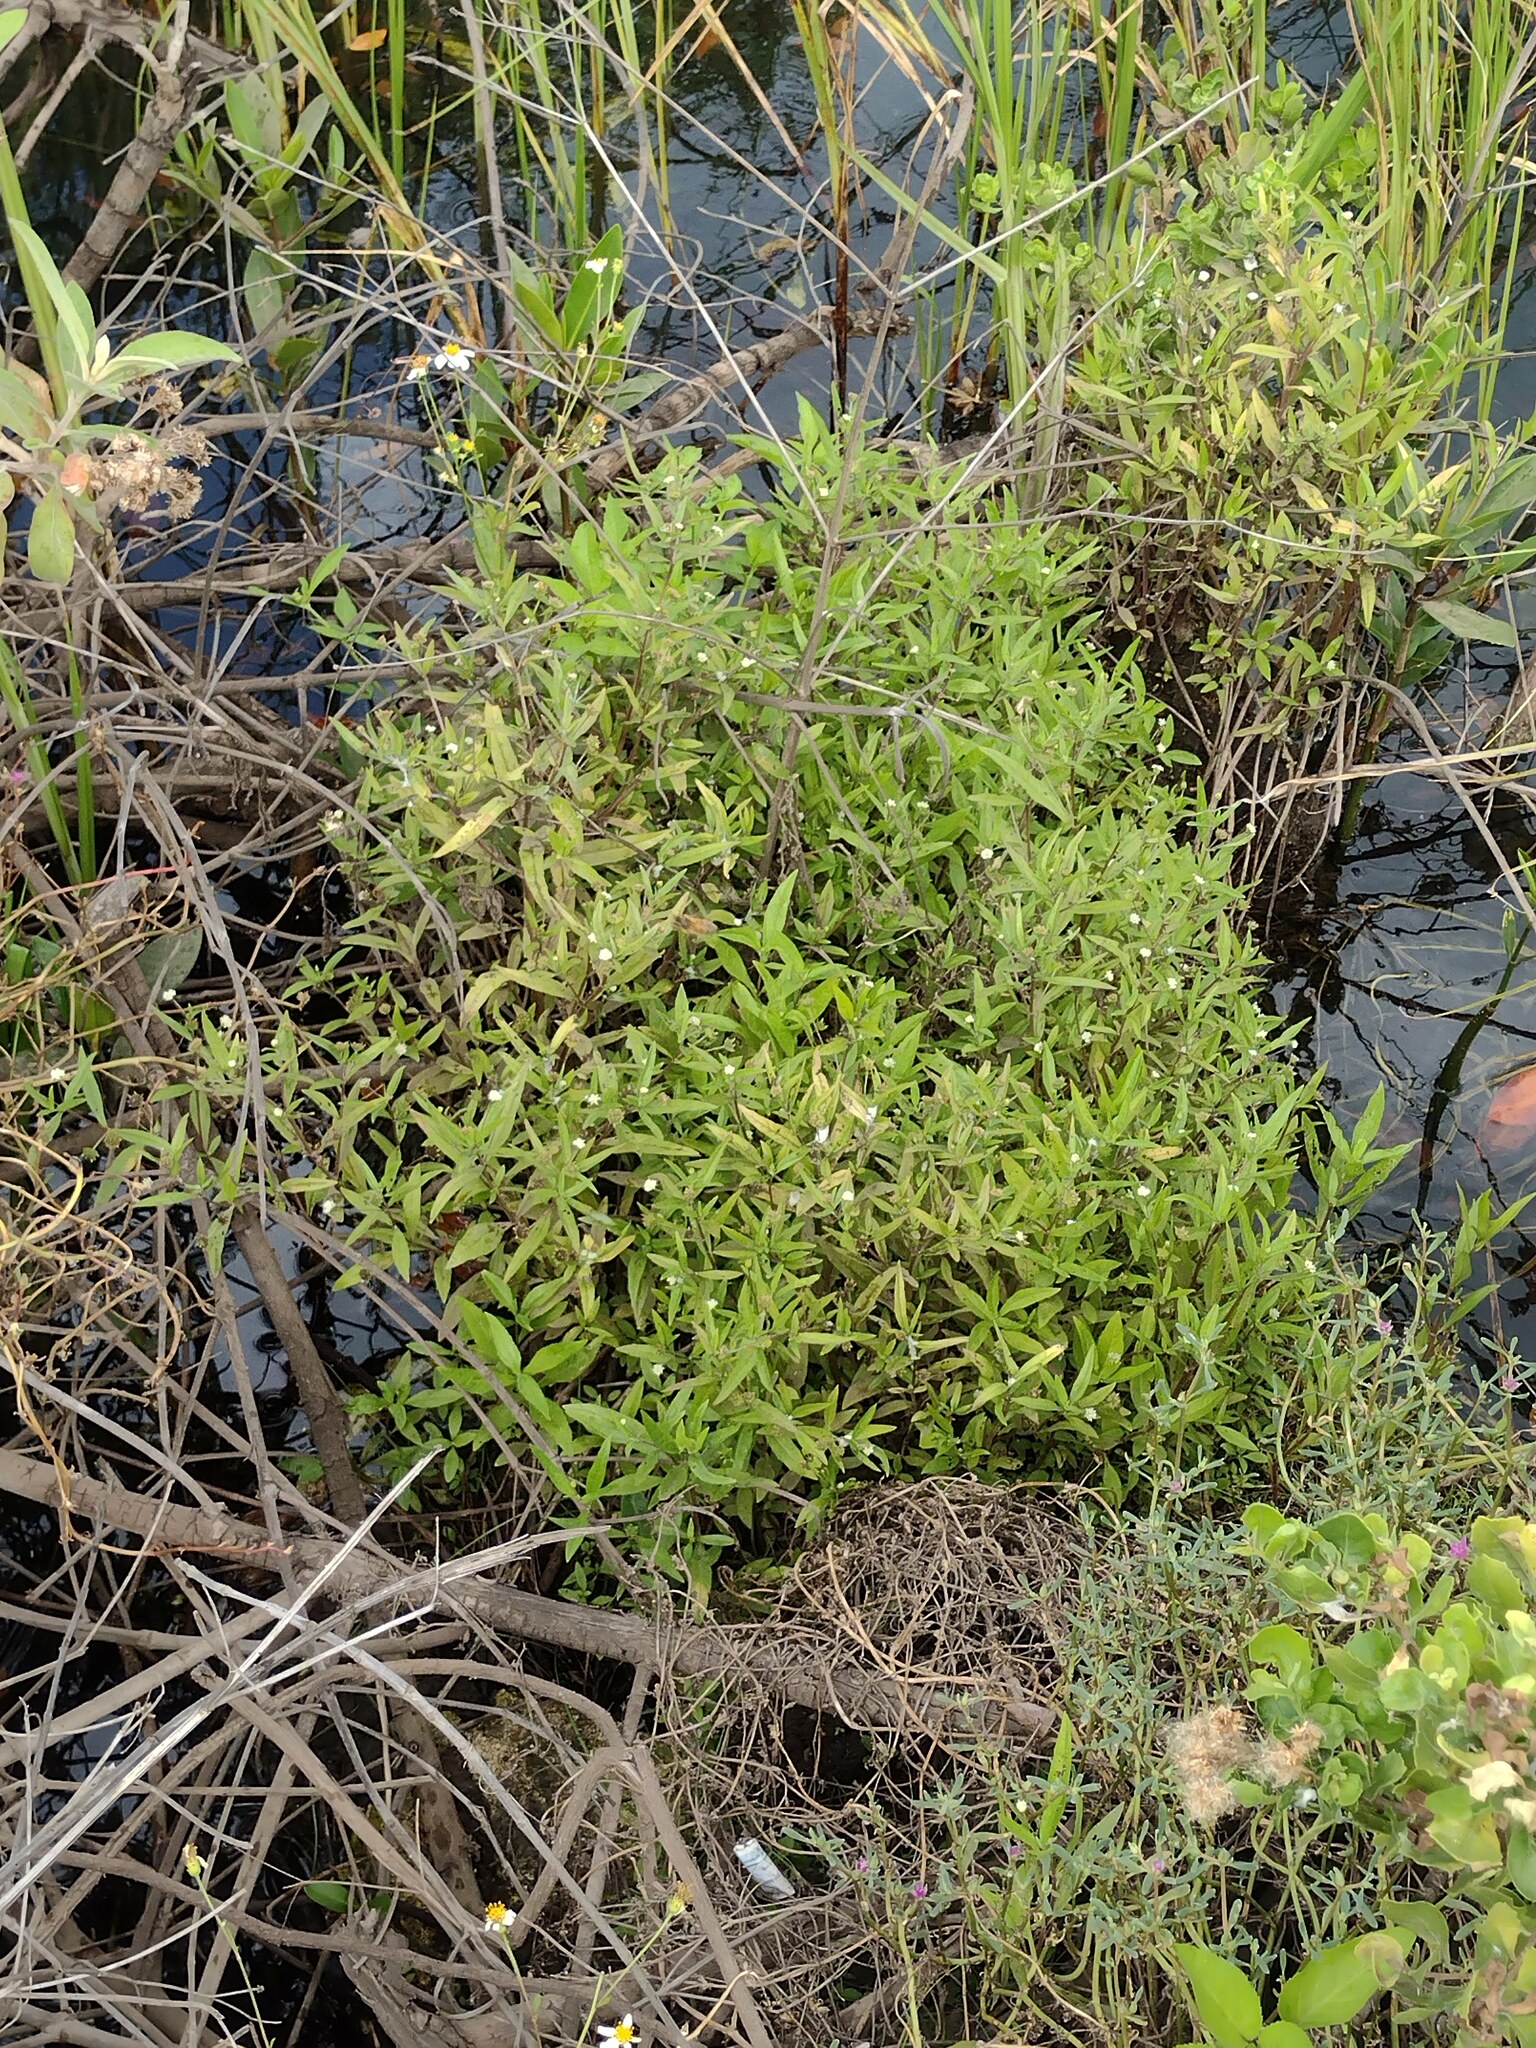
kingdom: Plantae
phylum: Tracheophyta
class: Magnoliopsida
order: Asterales
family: Asteraceae
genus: Eclipta
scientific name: Eclipta prostrata
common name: False daisy
